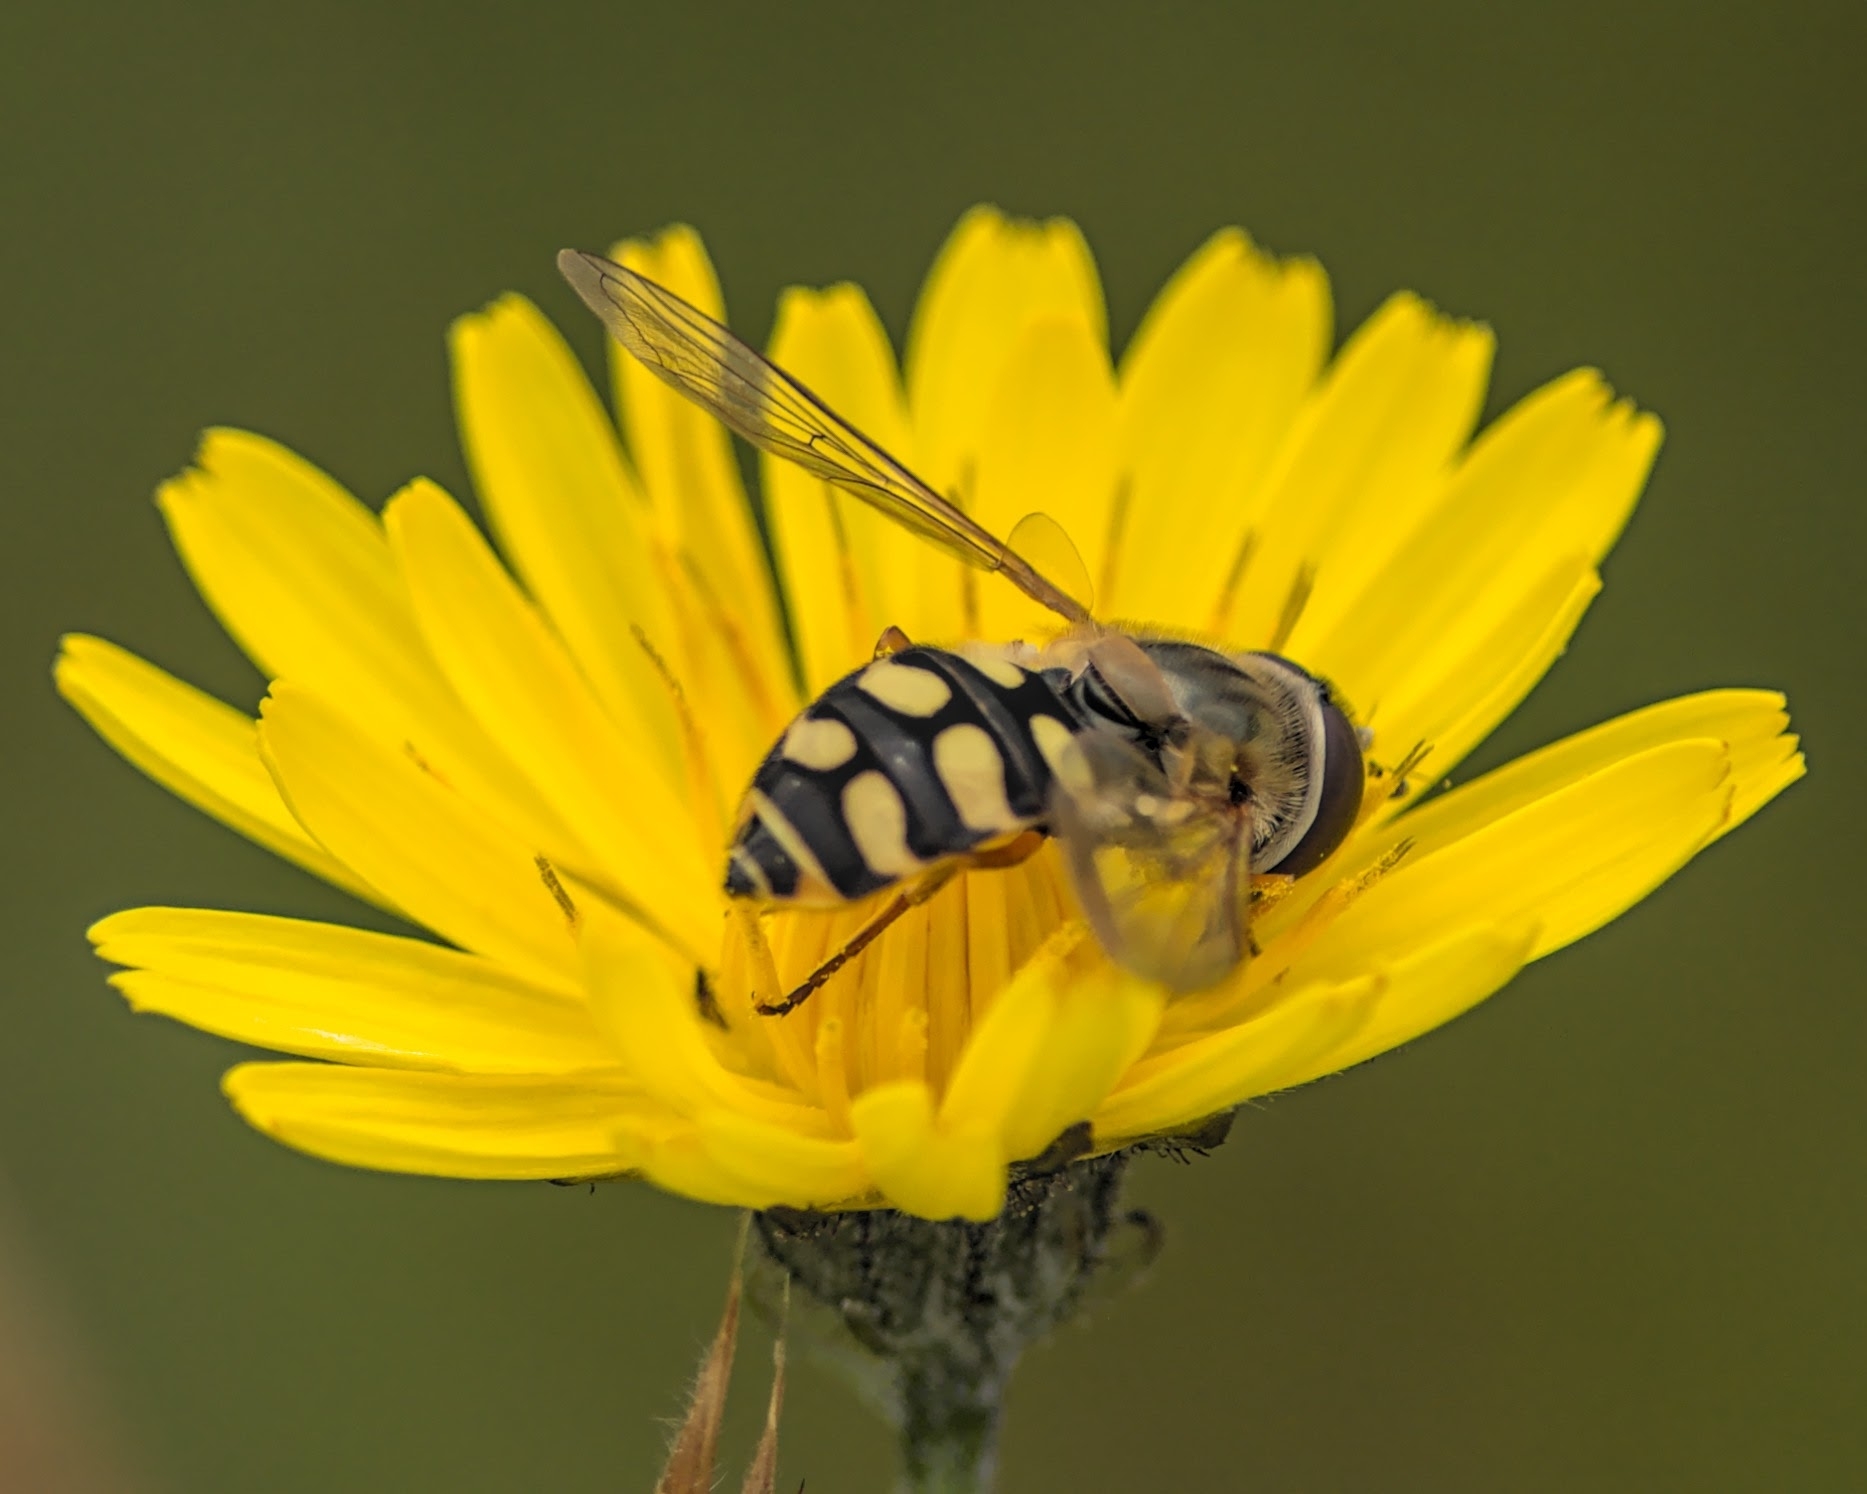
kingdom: Animalia
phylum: Arthropoda
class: Insecta
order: Diptera
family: Syrphidae
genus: Eupeodes
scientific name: Eupeodes corollae
